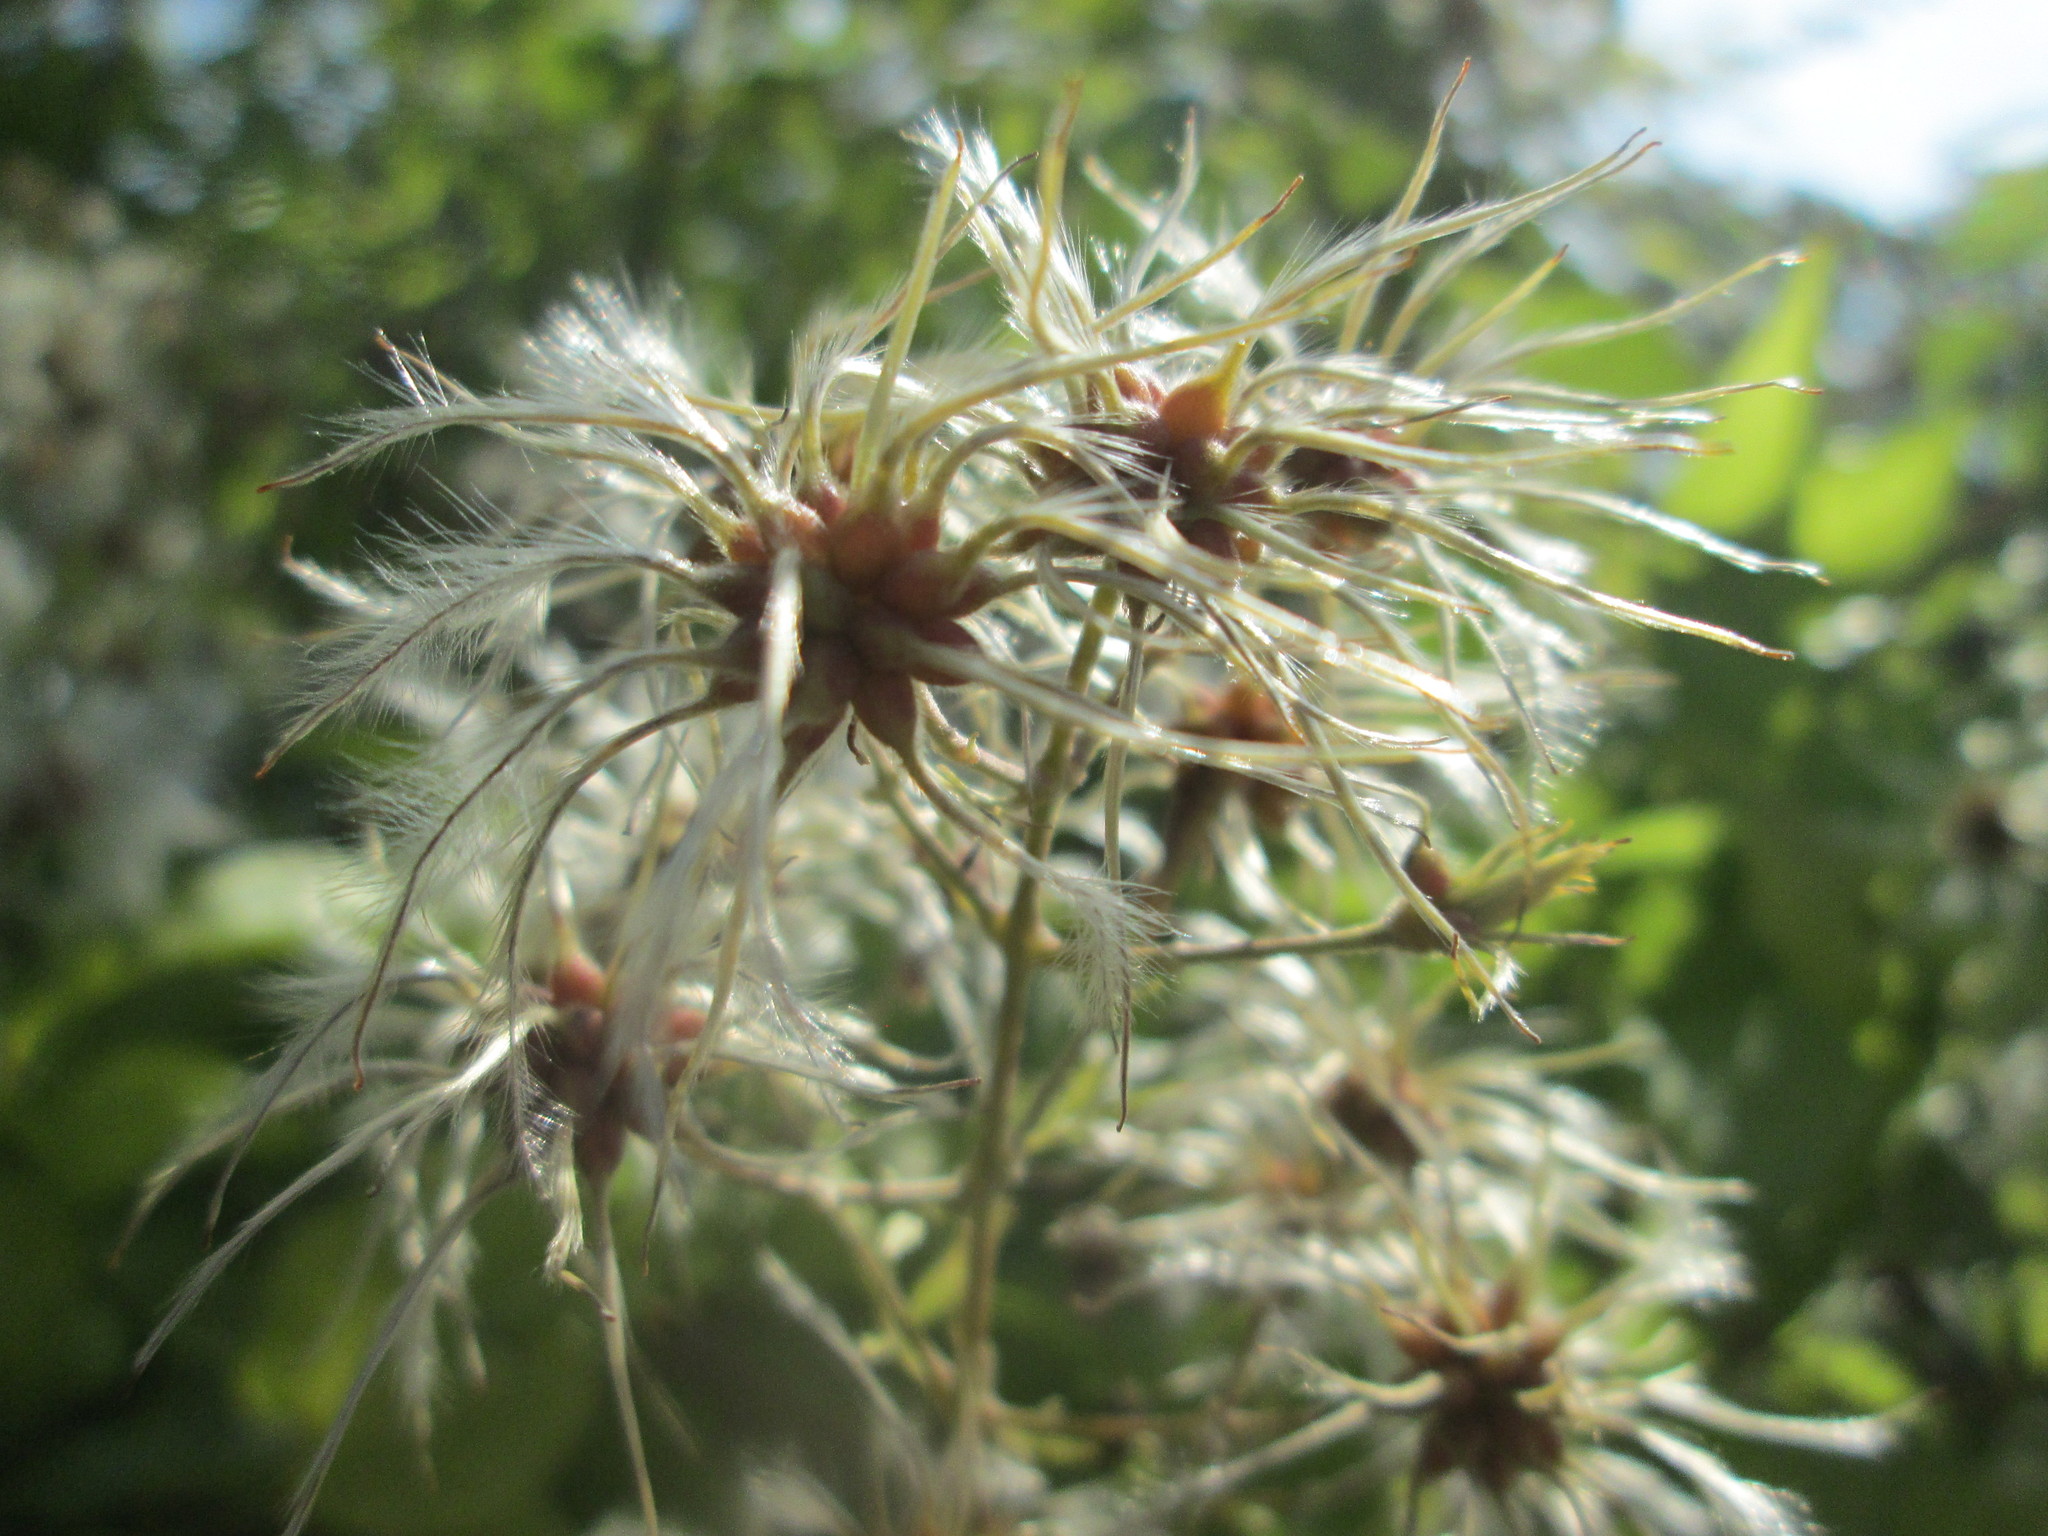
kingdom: Plantae
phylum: Tracheophyta
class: Magnoliopsida
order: Ranunculales
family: Ranunculaceae
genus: Clematis
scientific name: Clematis vitalba
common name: Evergreen clematis
